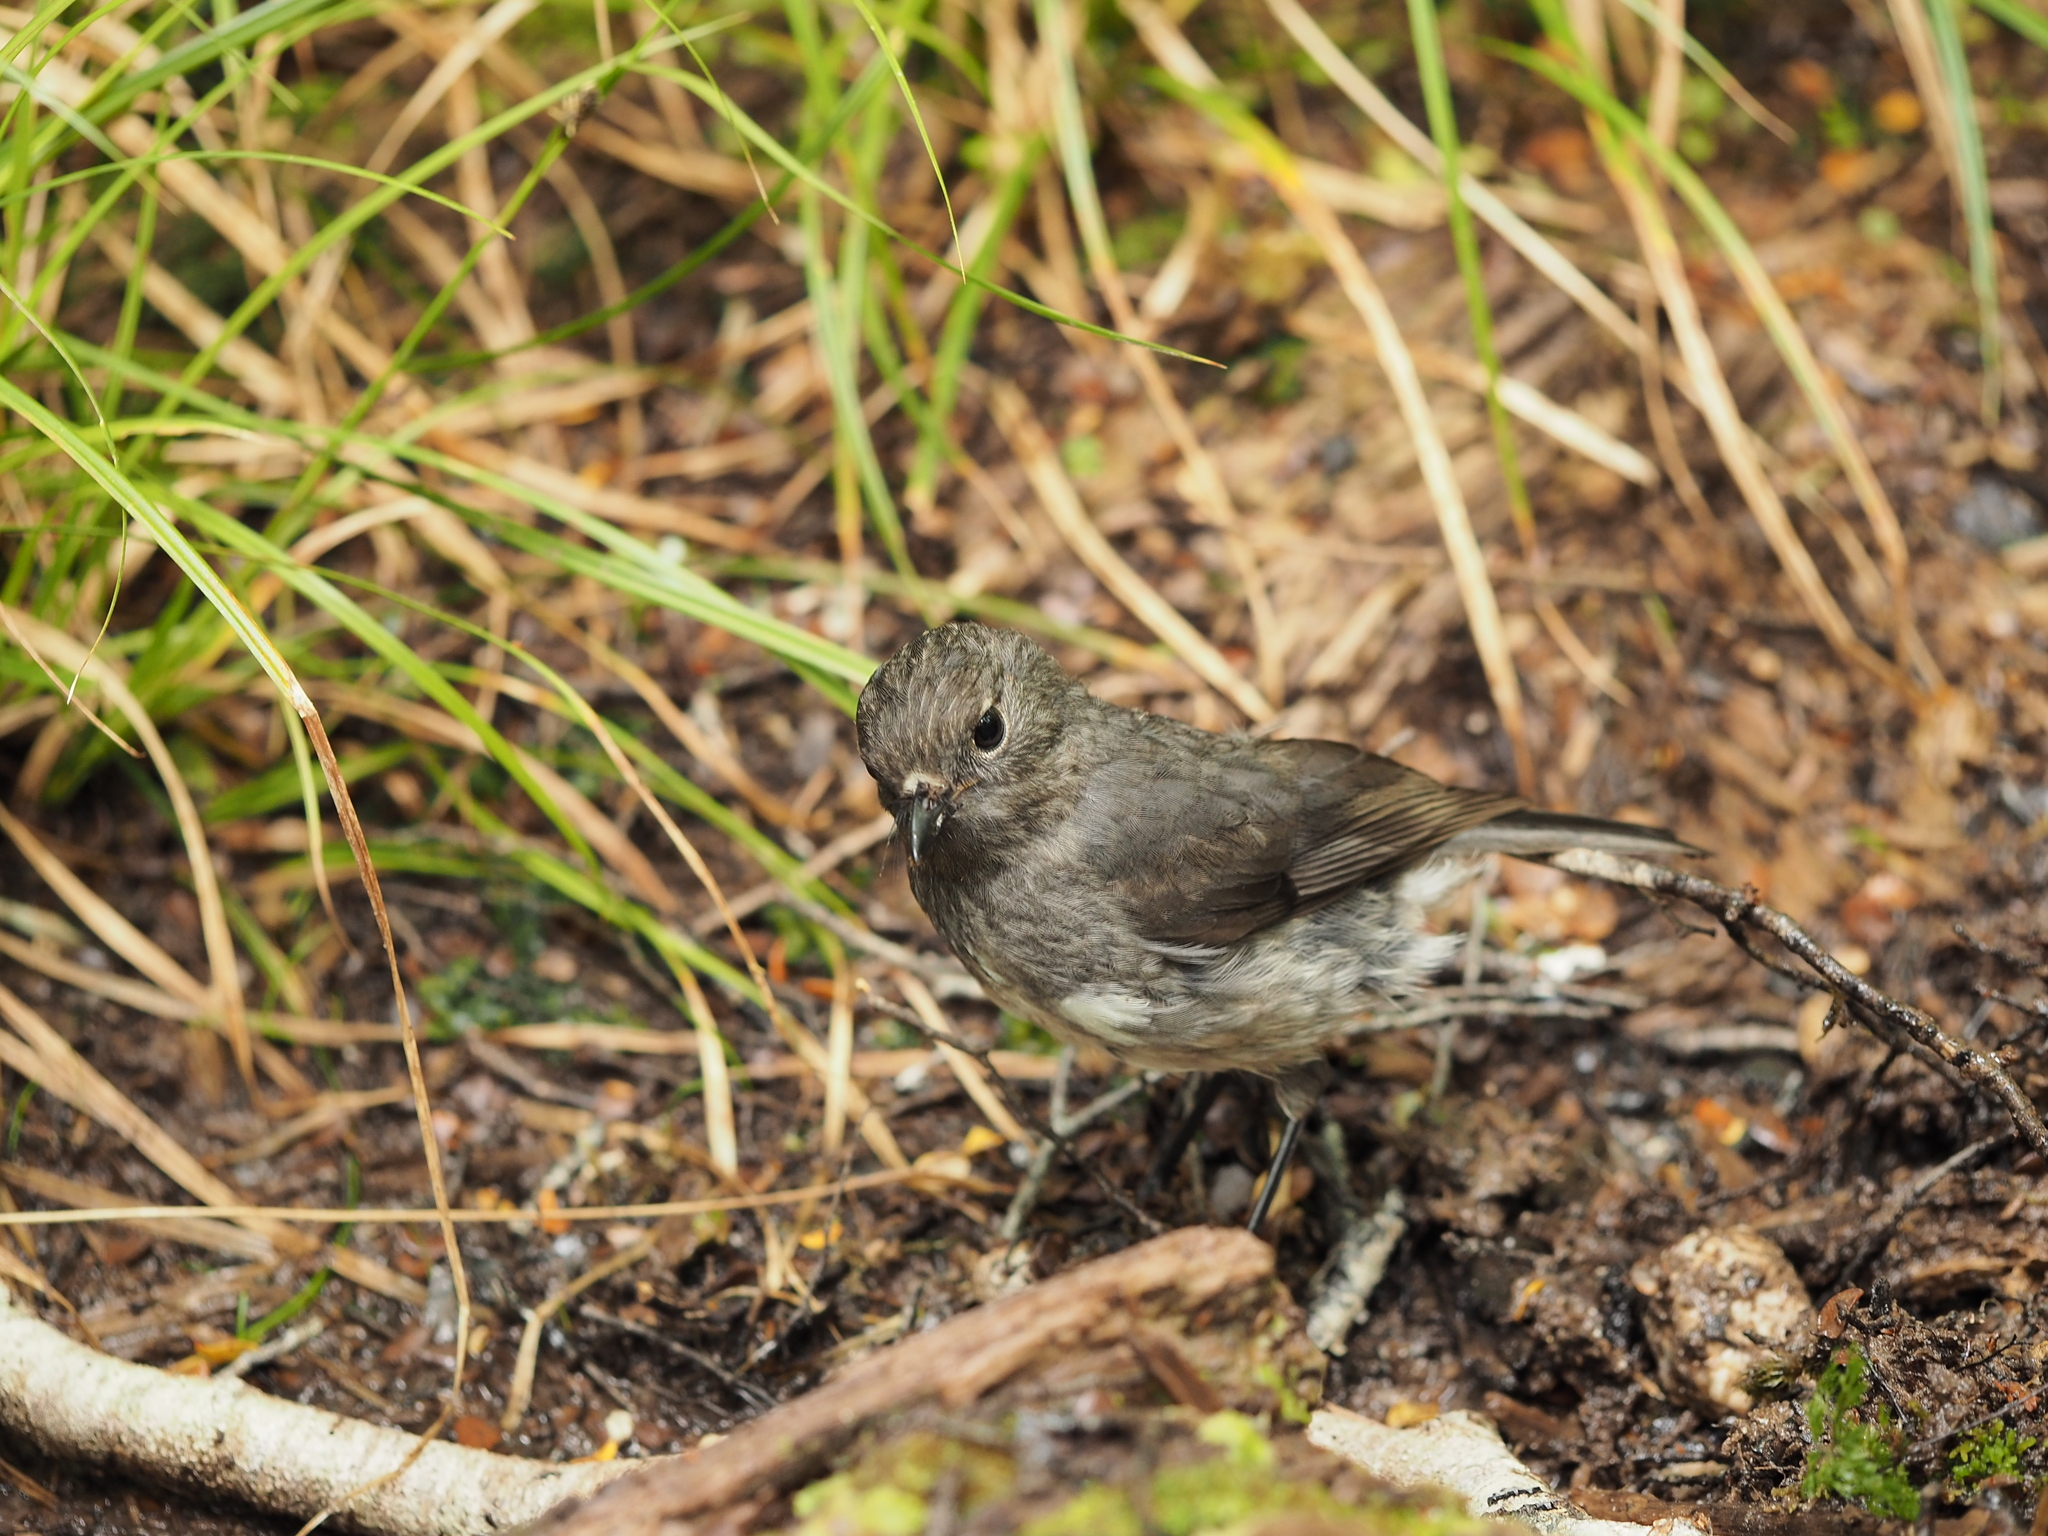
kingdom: Animalia
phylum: Chordata
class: Aves
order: Passeriformes
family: Petroicidae
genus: Petroica
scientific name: Petroica australis
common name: New zealand robin
